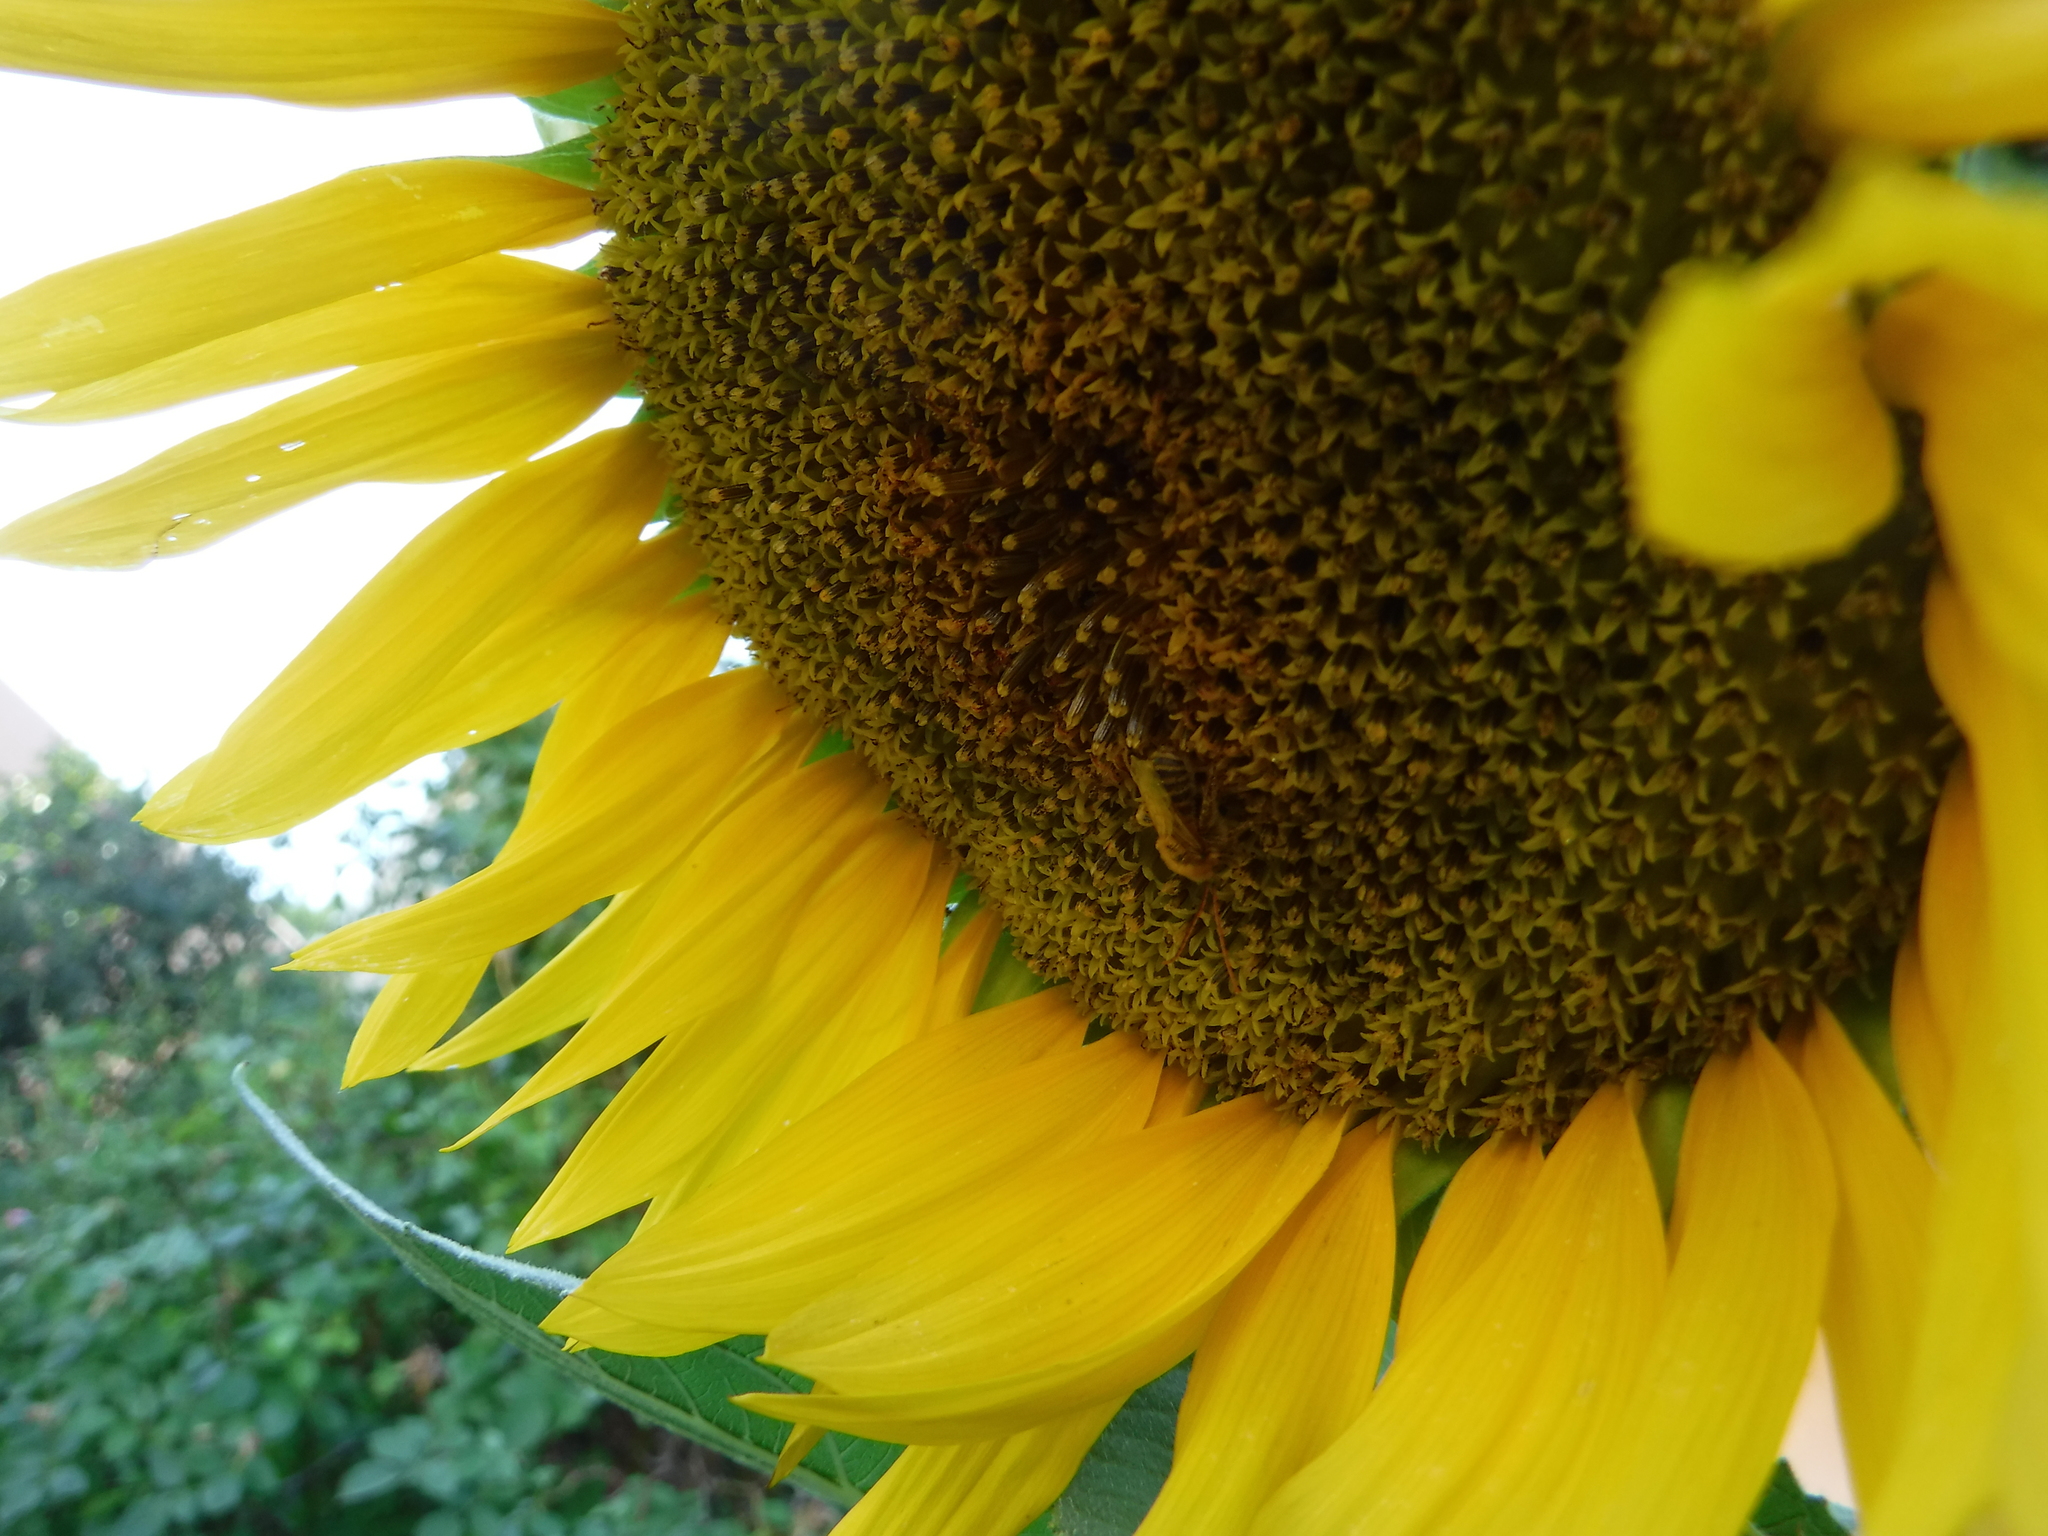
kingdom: Animalia
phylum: Arthropoda
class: Insecta
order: Hymenoptera
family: Apidae
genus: Melissodes
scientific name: Melissodes
